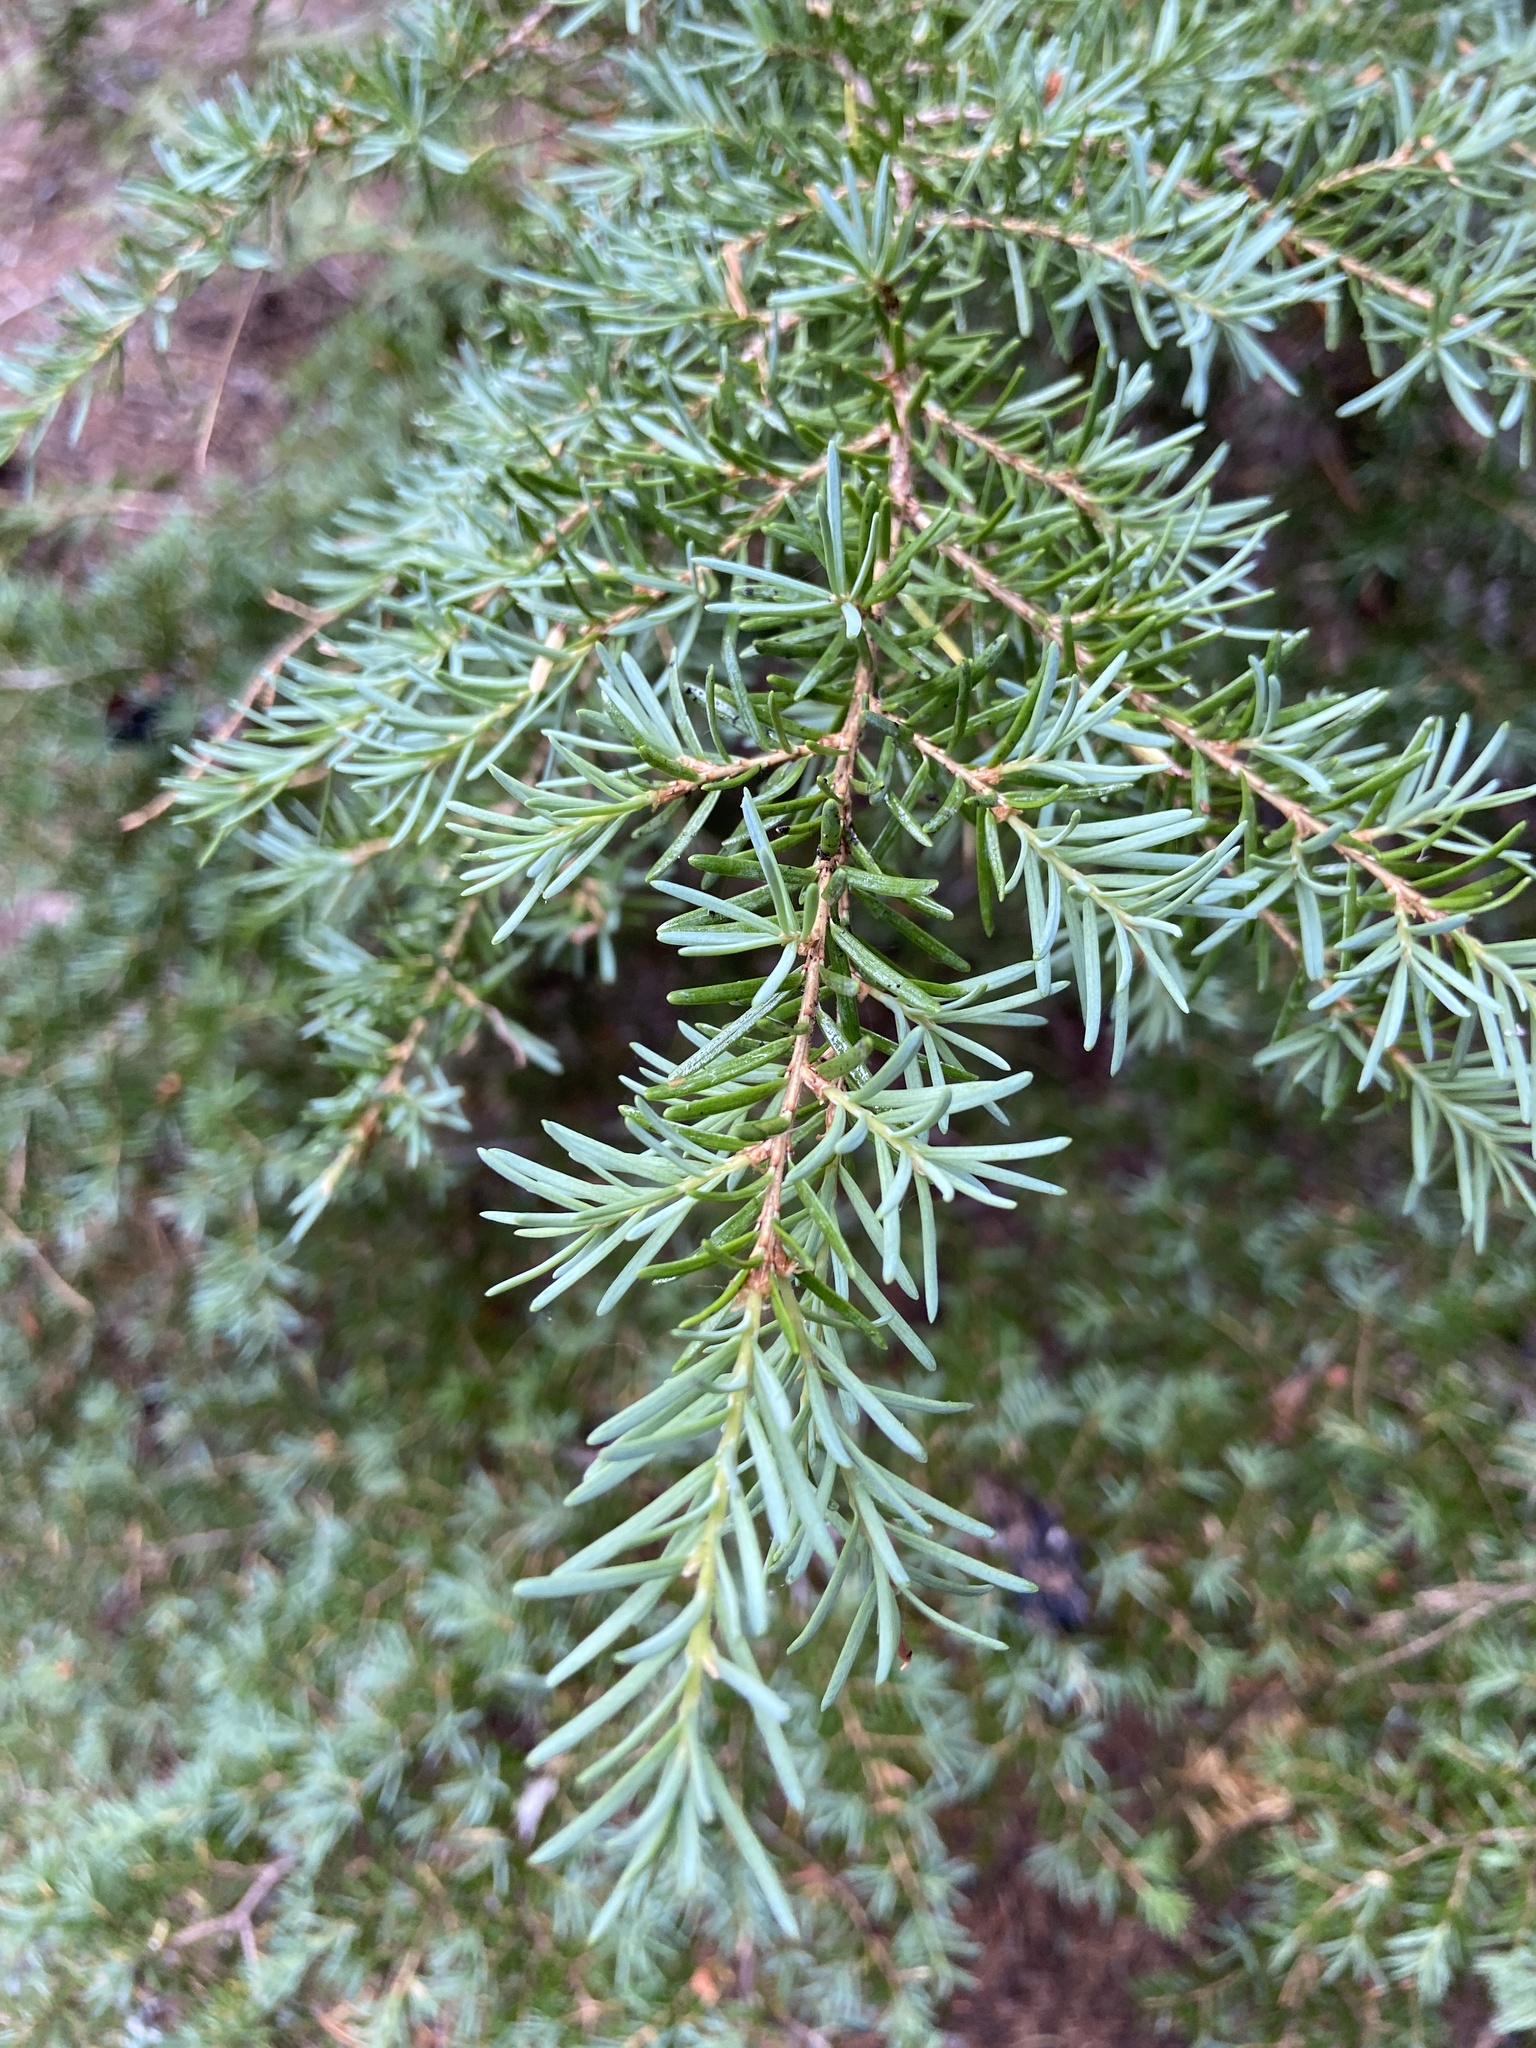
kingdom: Plantae
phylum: Tracheophyta
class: Pinopsida
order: Pinales
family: Pinaceae
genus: Tsuga
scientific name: Tsuga mertensiana
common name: Mountain hemlock
